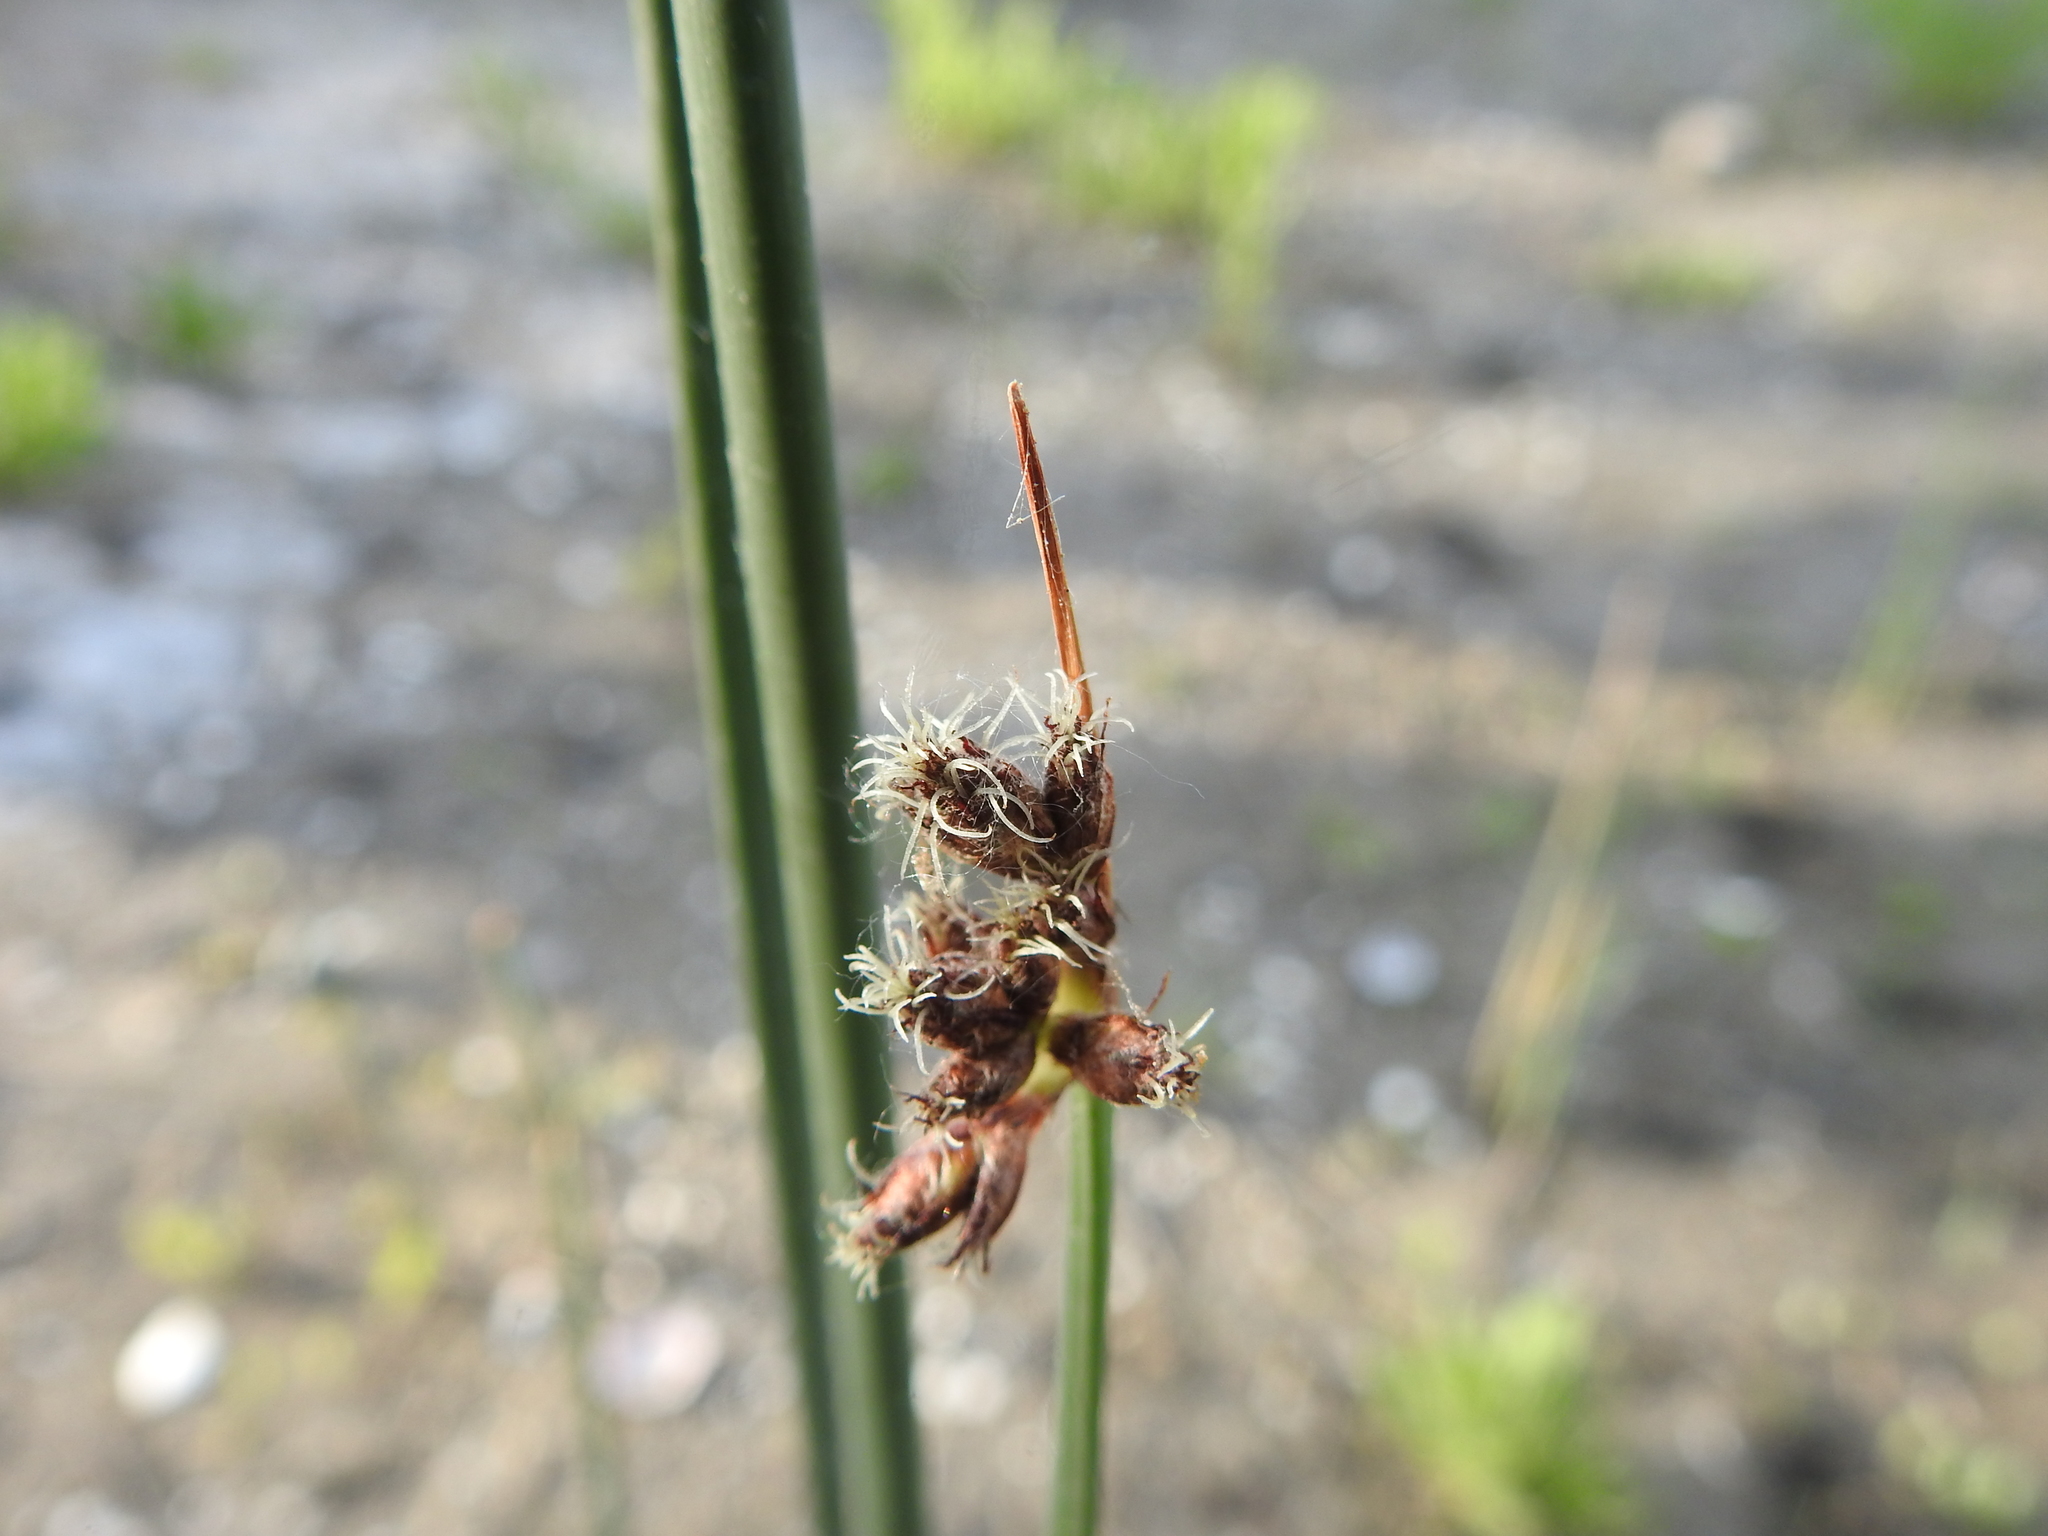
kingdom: Plantae
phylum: Tracheophyta
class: Liliopsida
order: Poales
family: Cyperaceae
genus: Schoenoplectus
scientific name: Schoenoplectus acutus
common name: Hardstem bulrush
